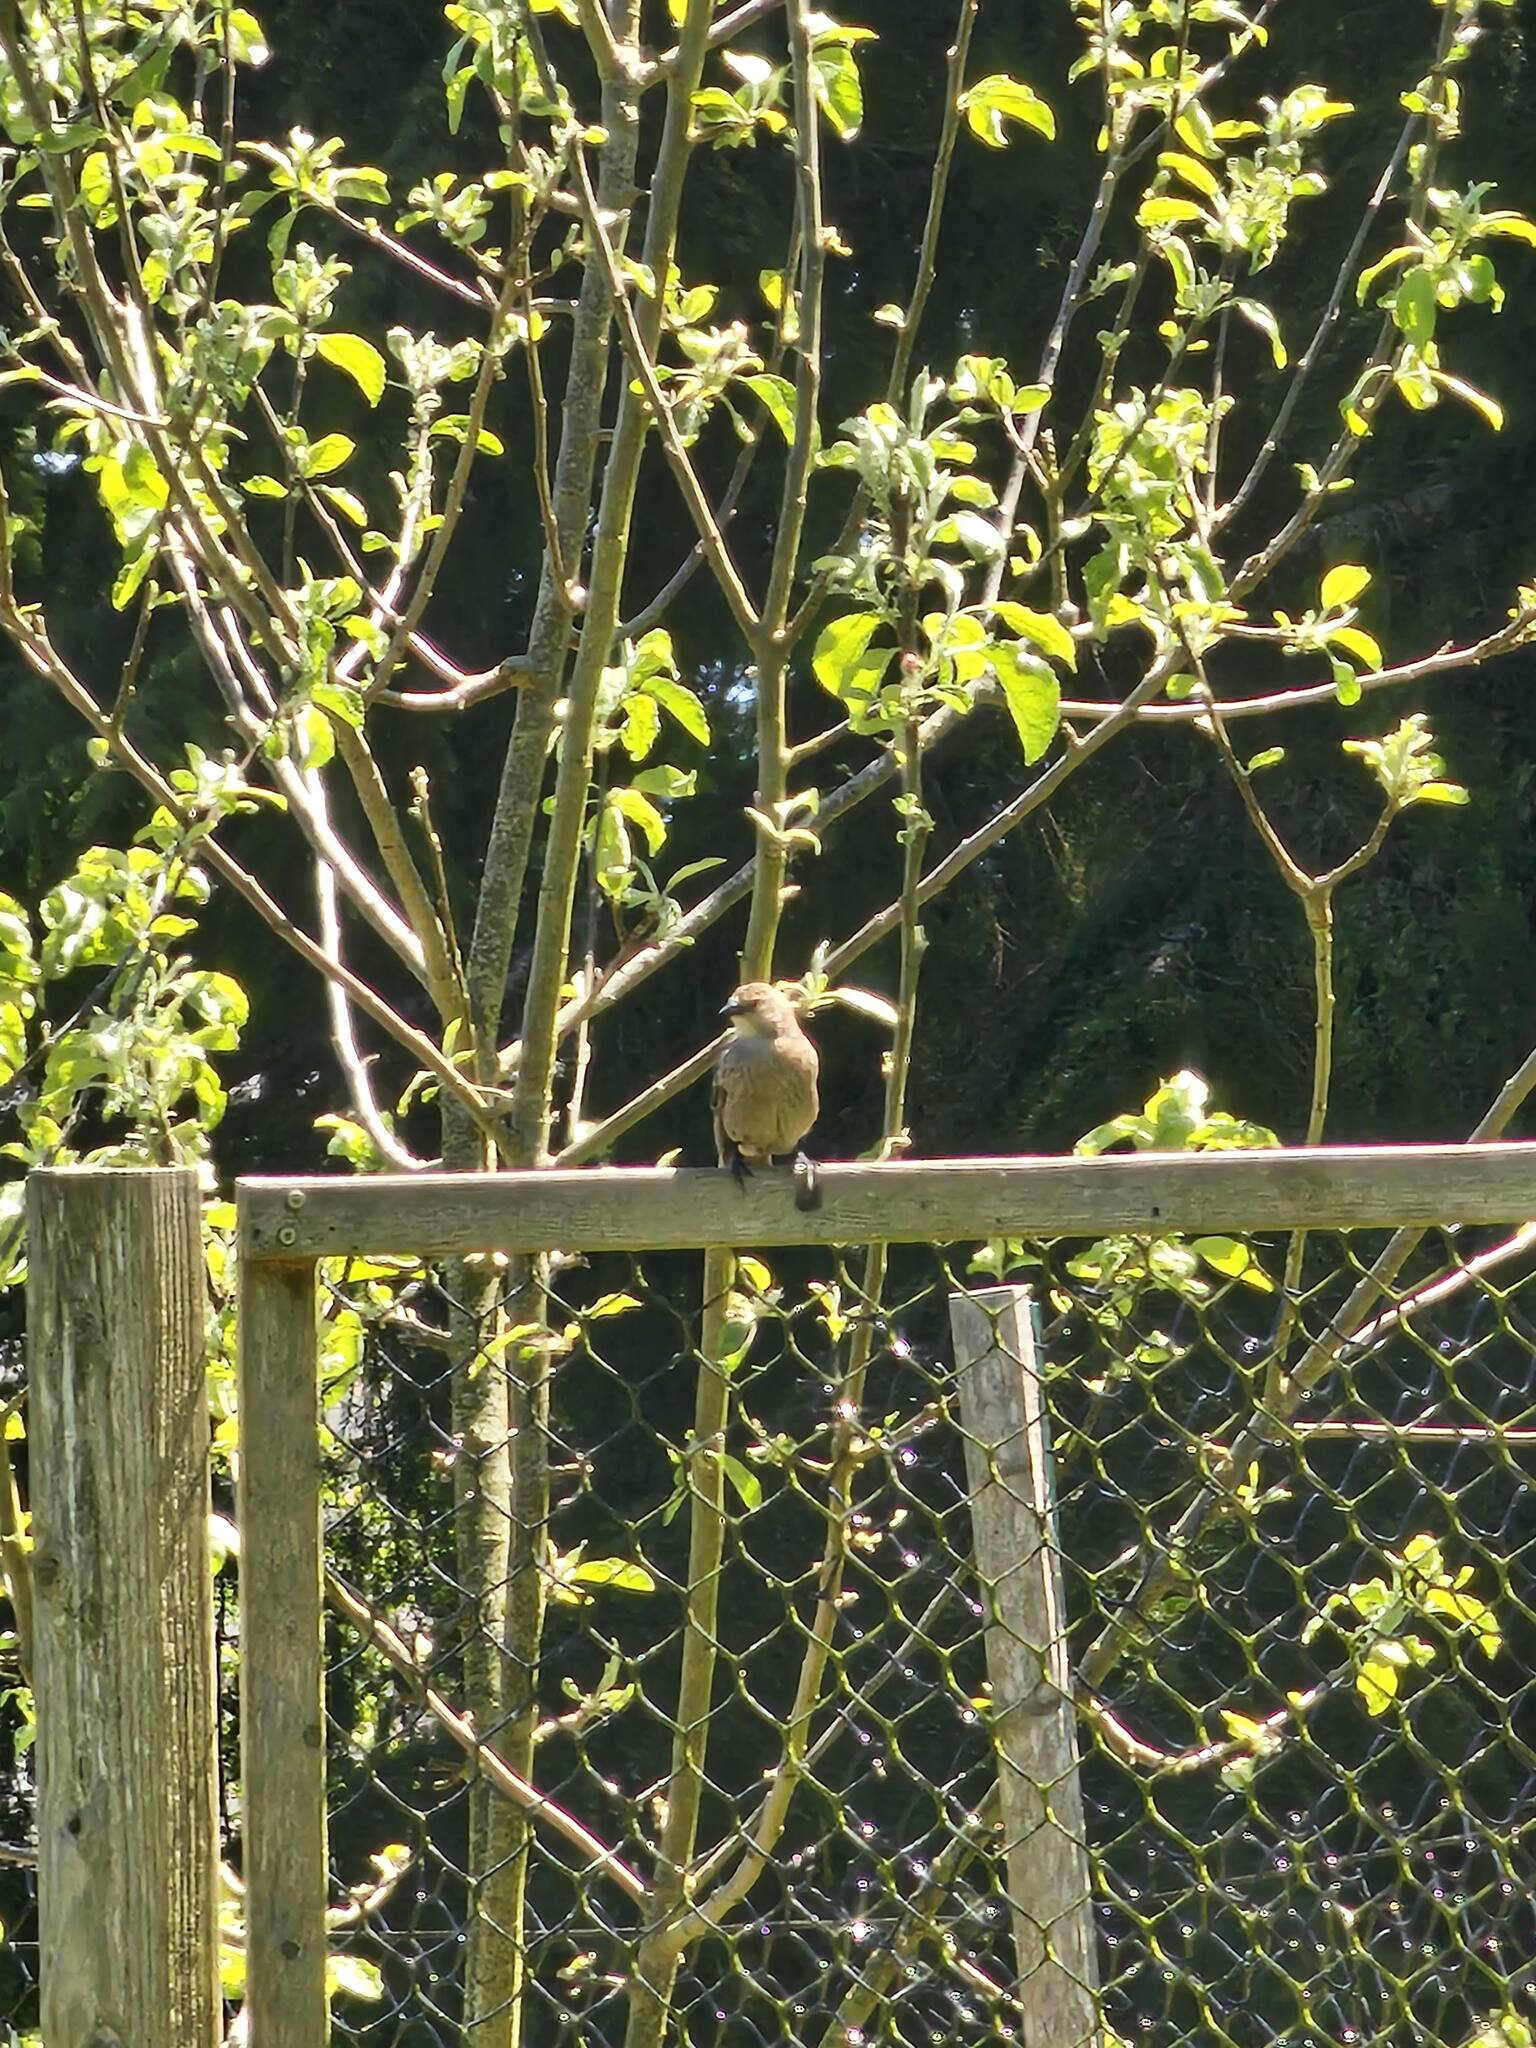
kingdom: Animalia
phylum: Chordata
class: Aves
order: Passeriformes
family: Icteridae
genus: Molothrus
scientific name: Molothrus ater
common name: Brown-headed cowbird
